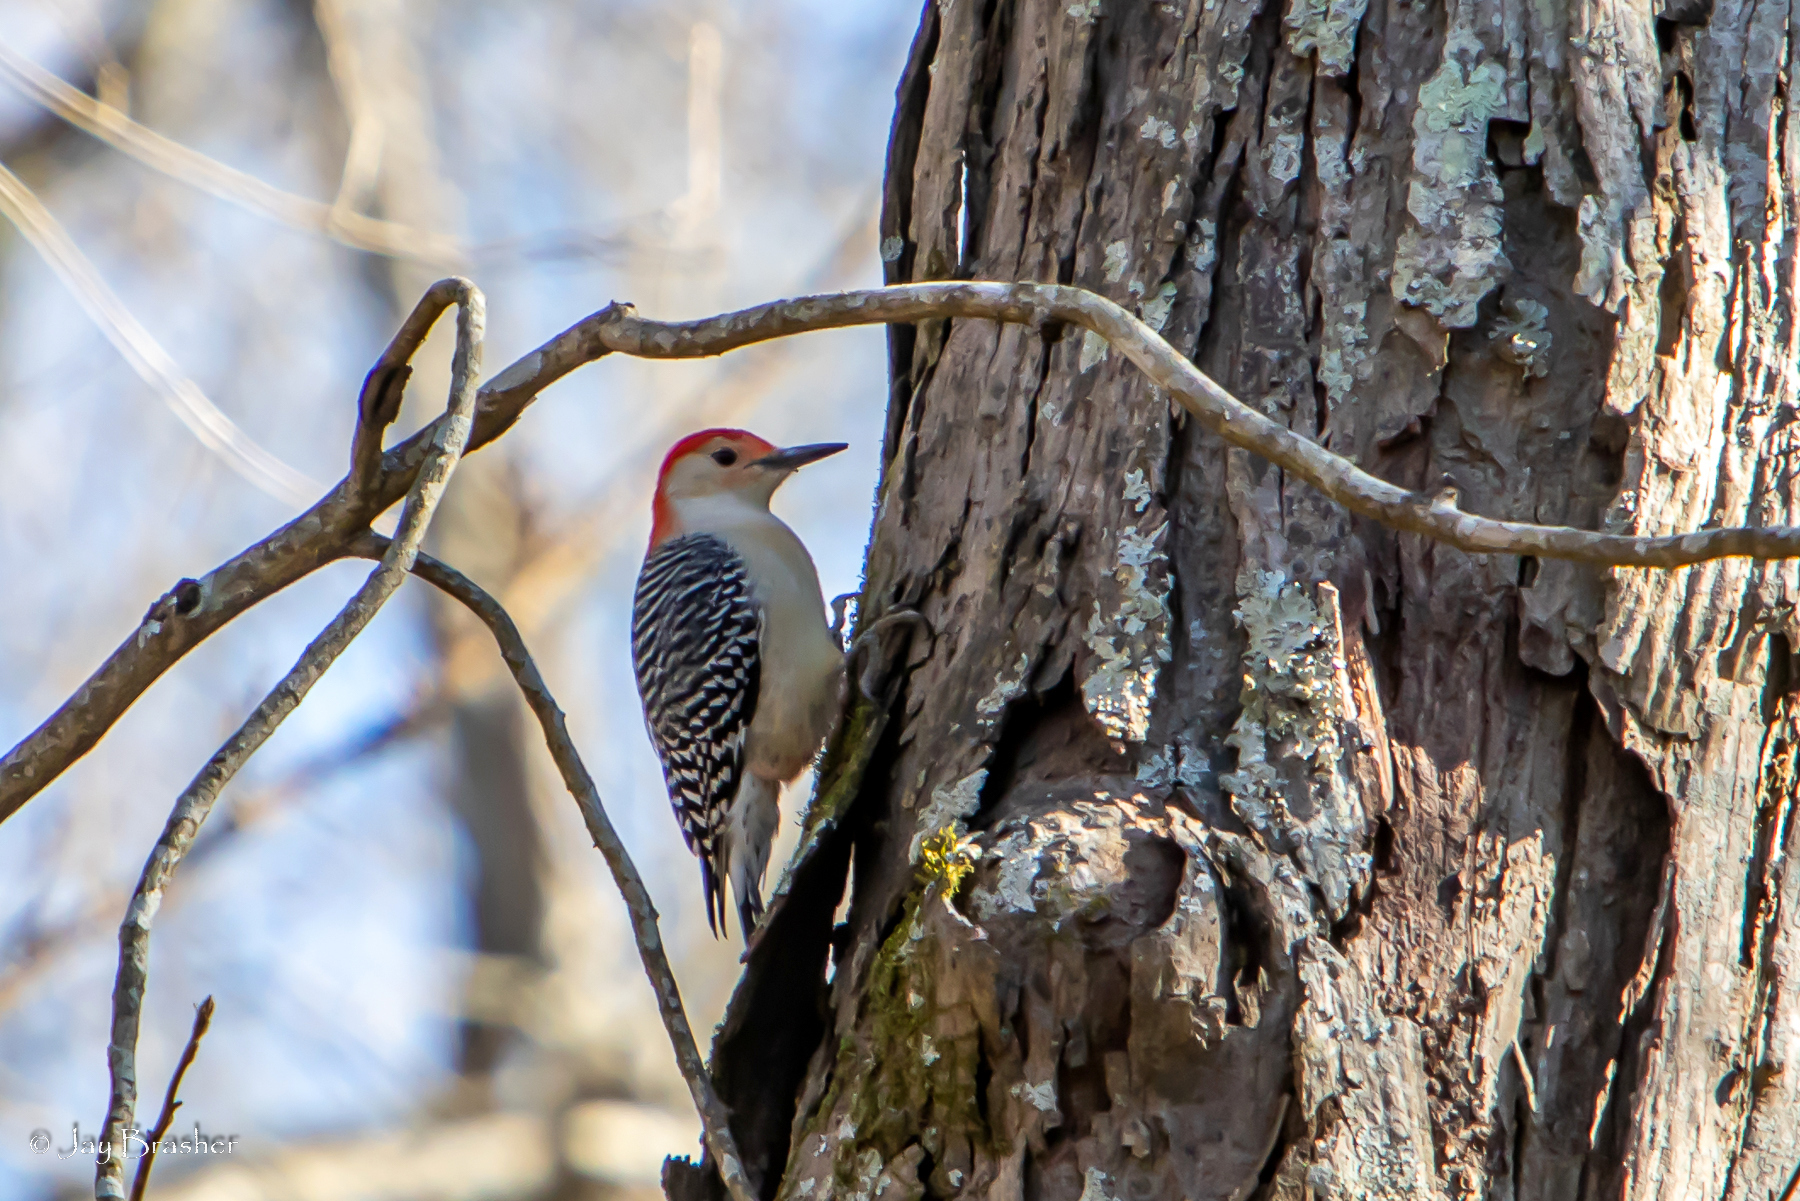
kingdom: Animalia
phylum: Chordata
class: Aves
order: Piciformes
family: Picidae
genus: Melanerpes
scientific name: Melanerpes carolinus
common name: Red-bellied woodpecker
